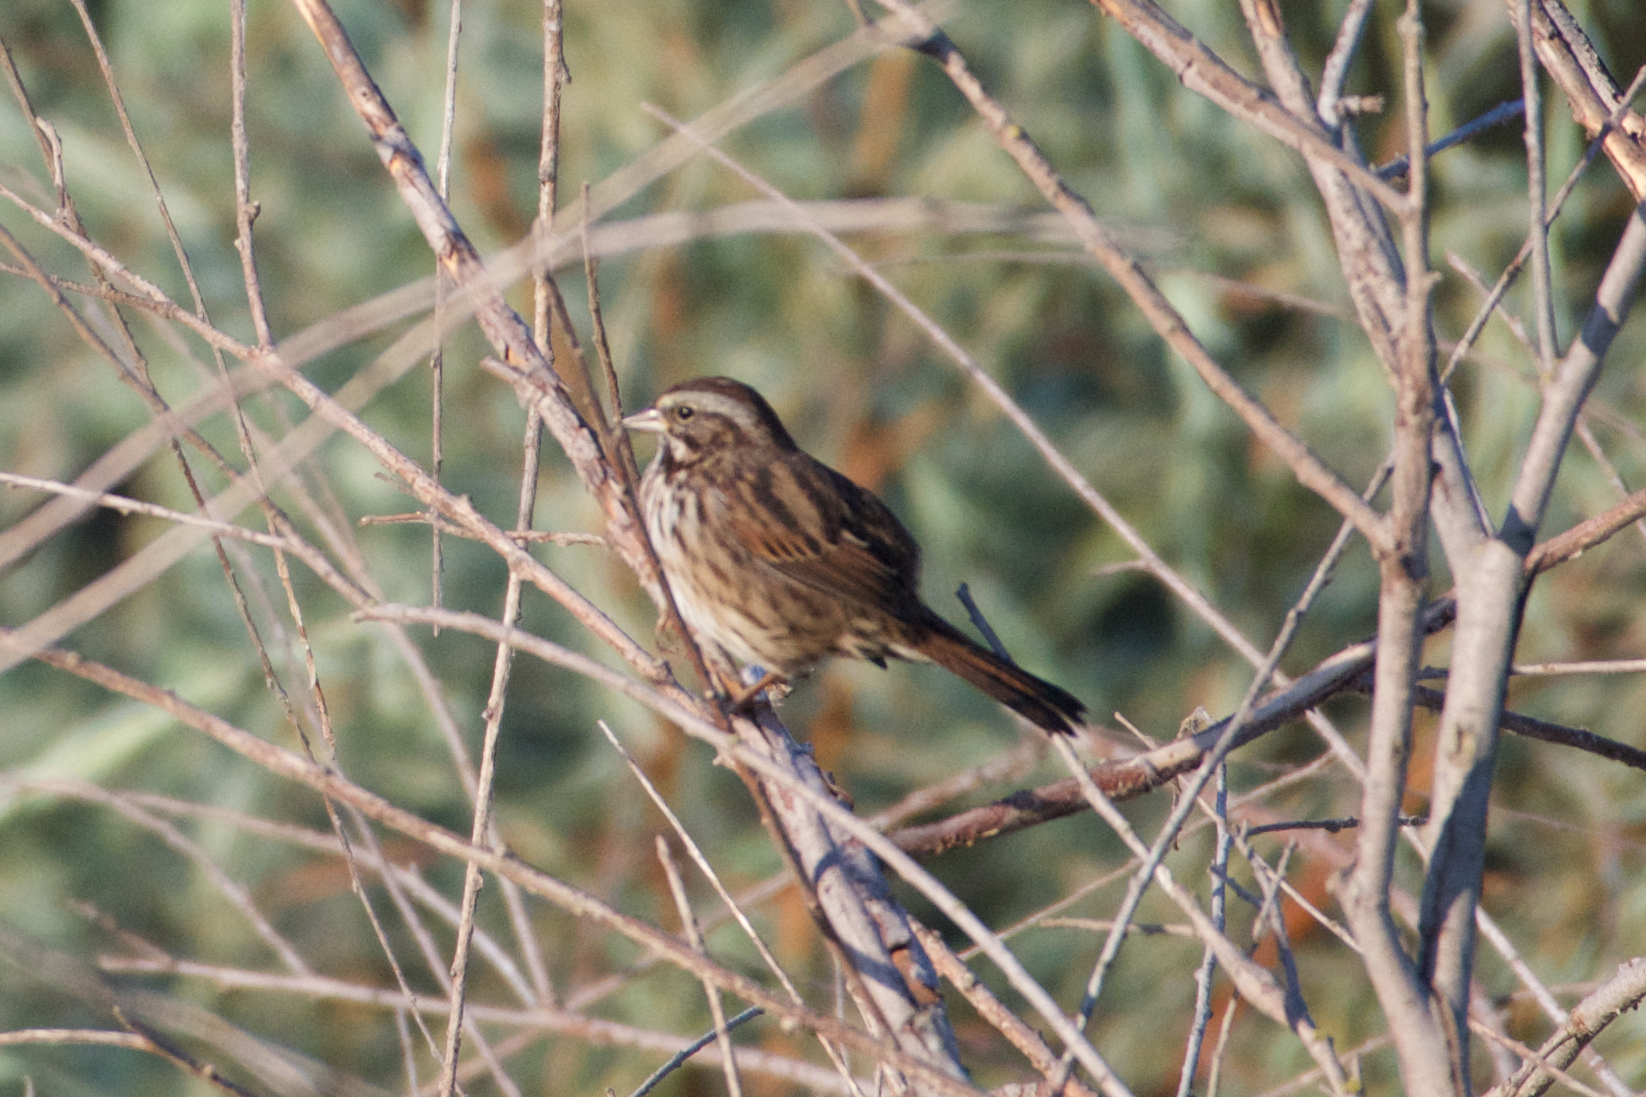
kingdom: Animalia
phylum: Chordata
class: Aves
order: Passeriformes
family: Passerellidae
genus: Melospiza
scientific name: Melospiza melodia
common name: Song sparrow
